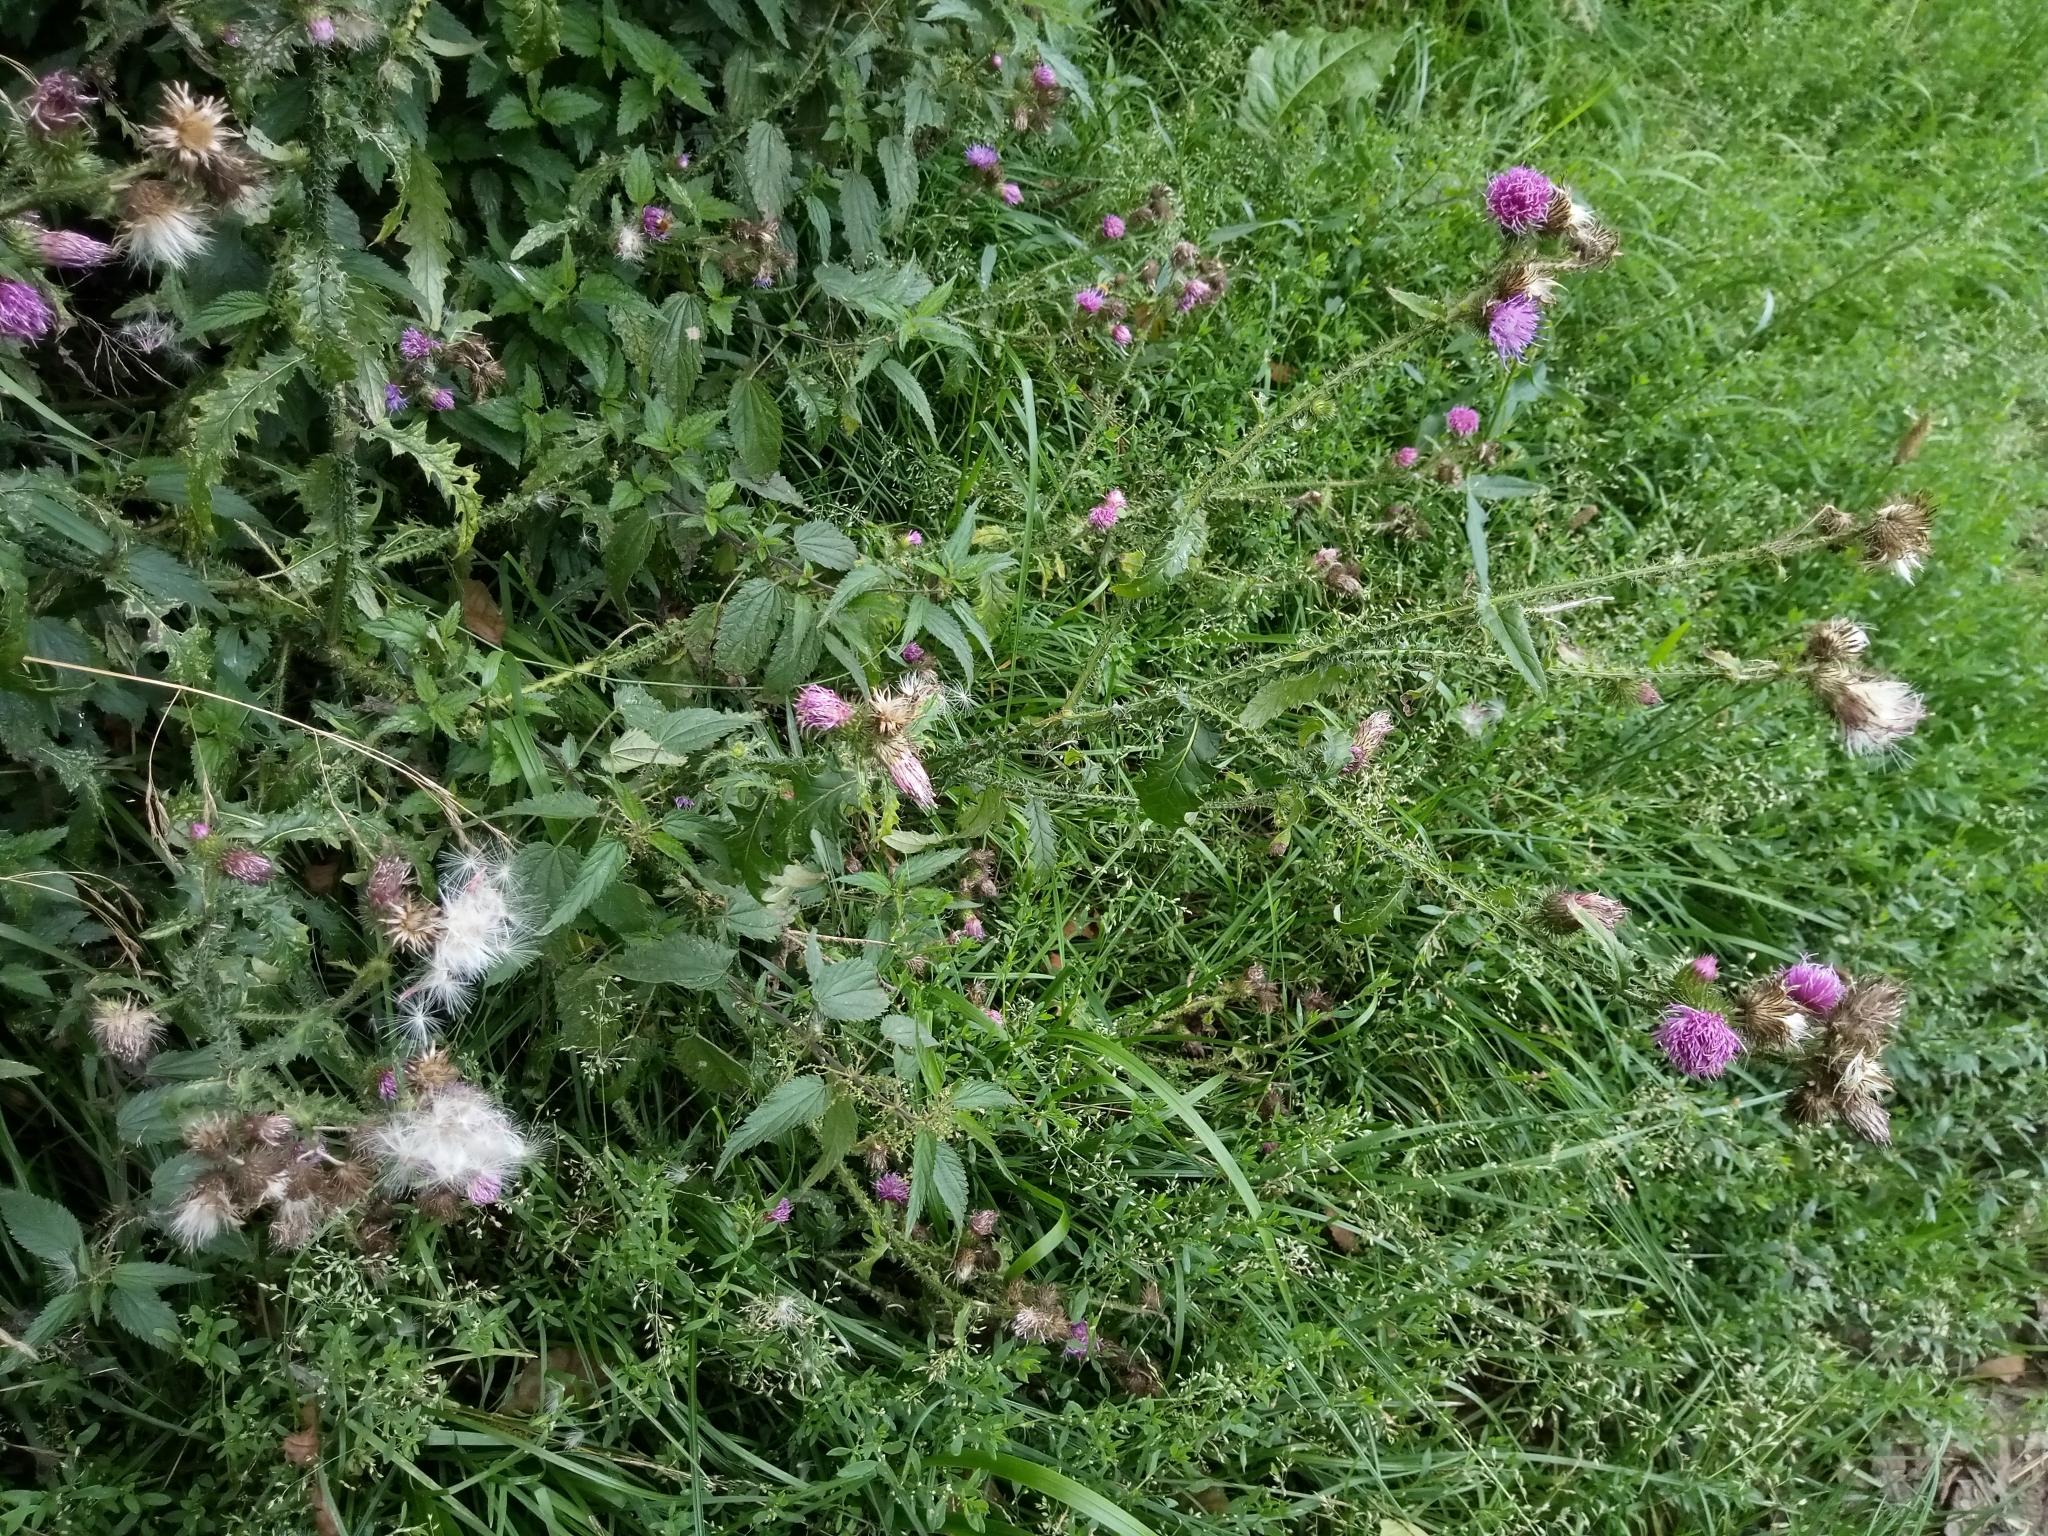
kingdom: Plantae
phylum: Tracheophyta
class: Magnoliopsida
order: Asterales
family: Asteraceae
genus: Carduus
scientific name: Carduus acanthoides
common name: Plumeless thistle
